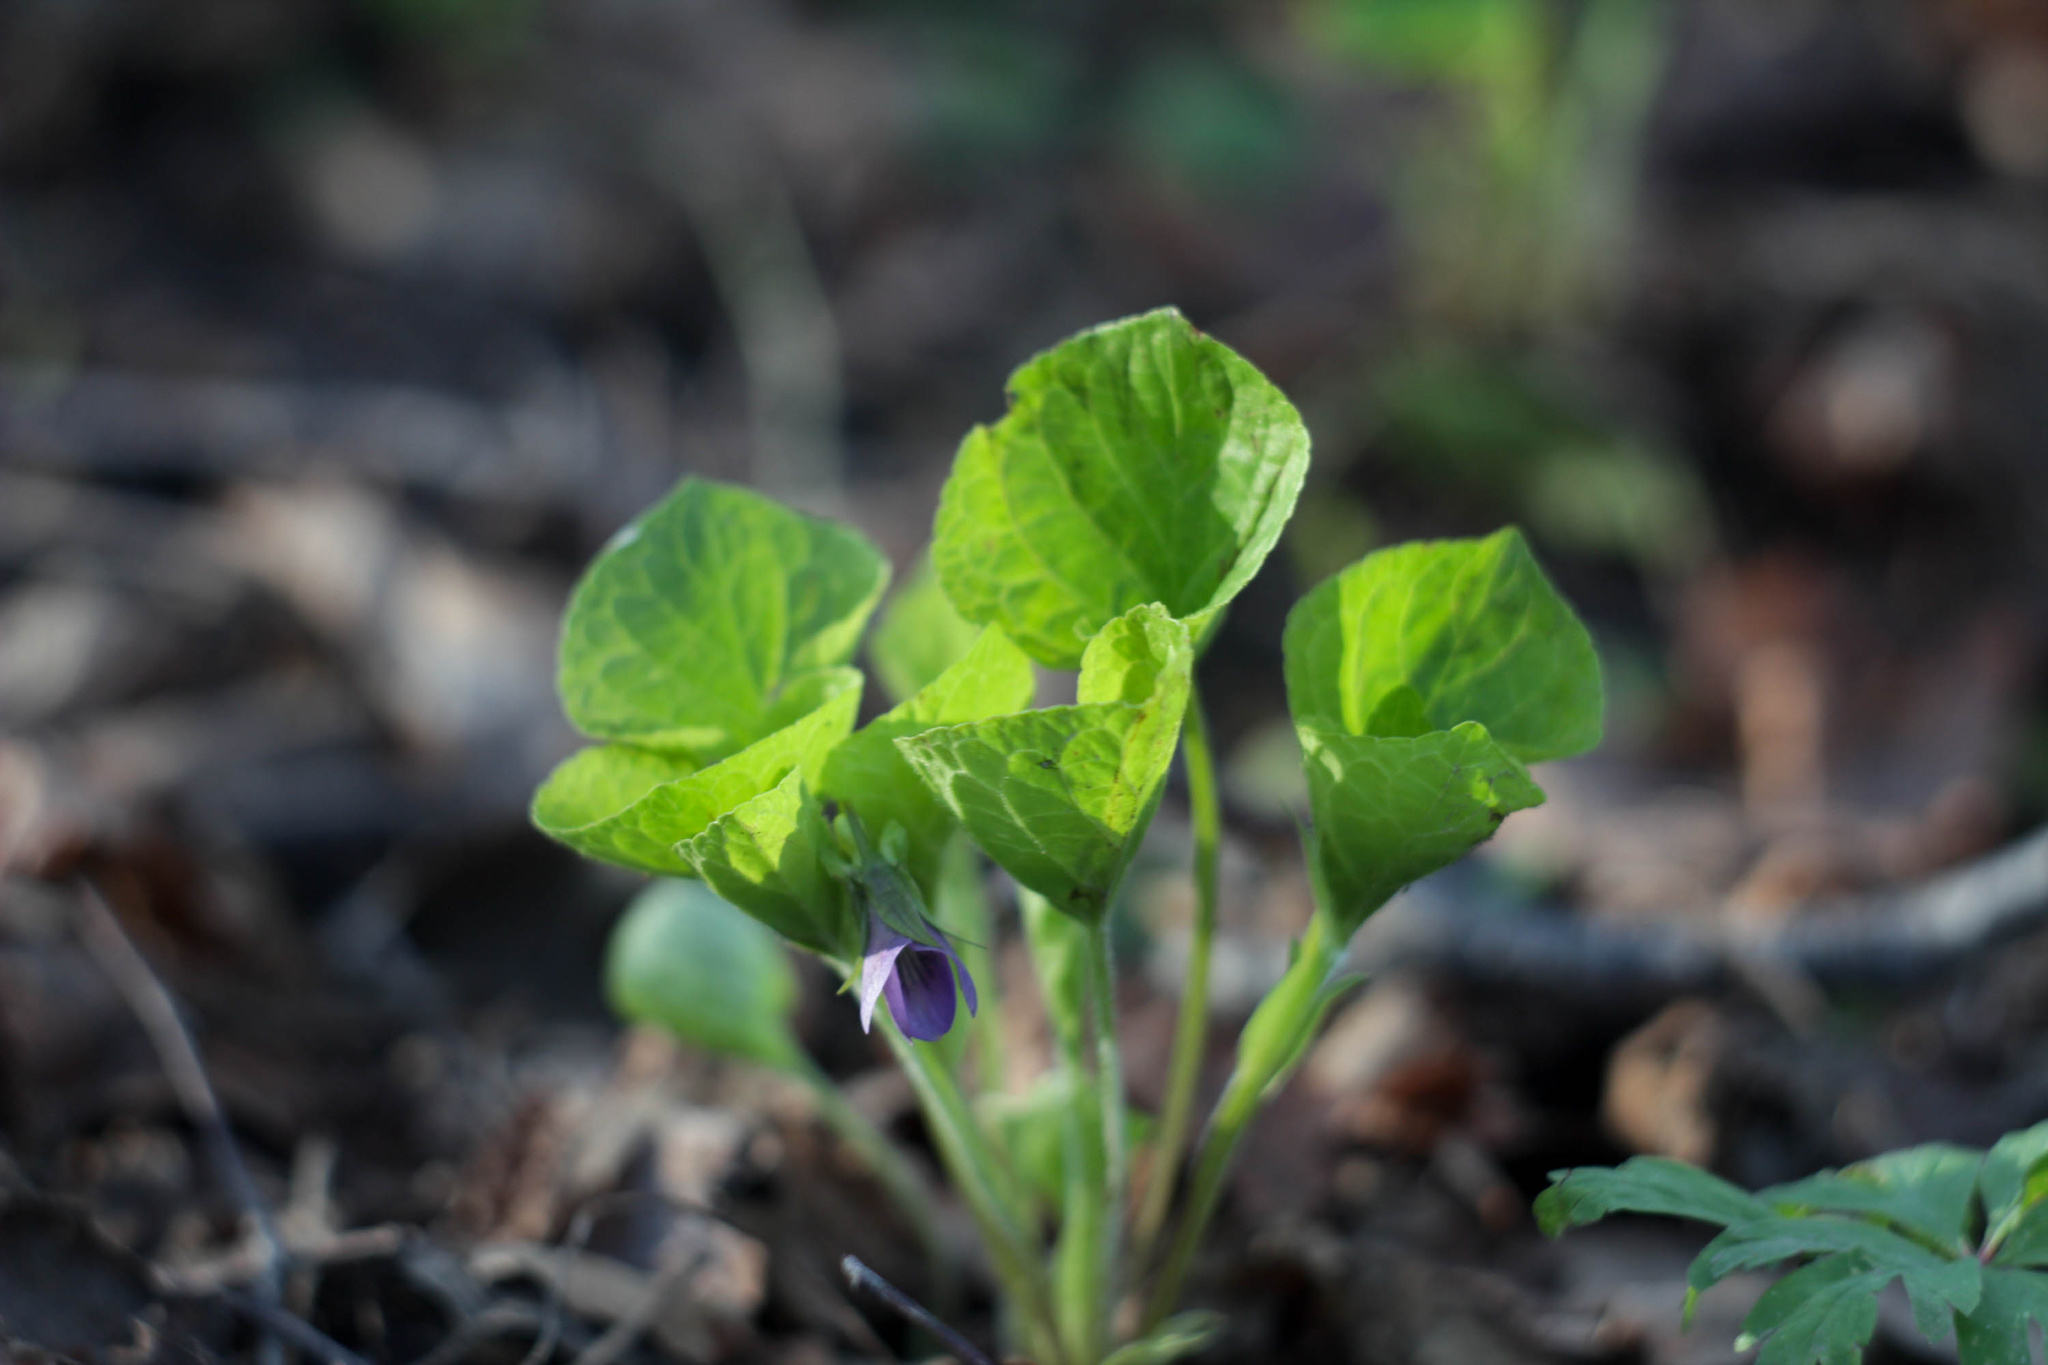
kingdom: Plantae
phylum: Tracheophyta
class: Magnoliopsida
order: Malpighiales
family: Violaceae
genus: Viola
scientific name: Viola mirabilis
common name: Wonder violet
